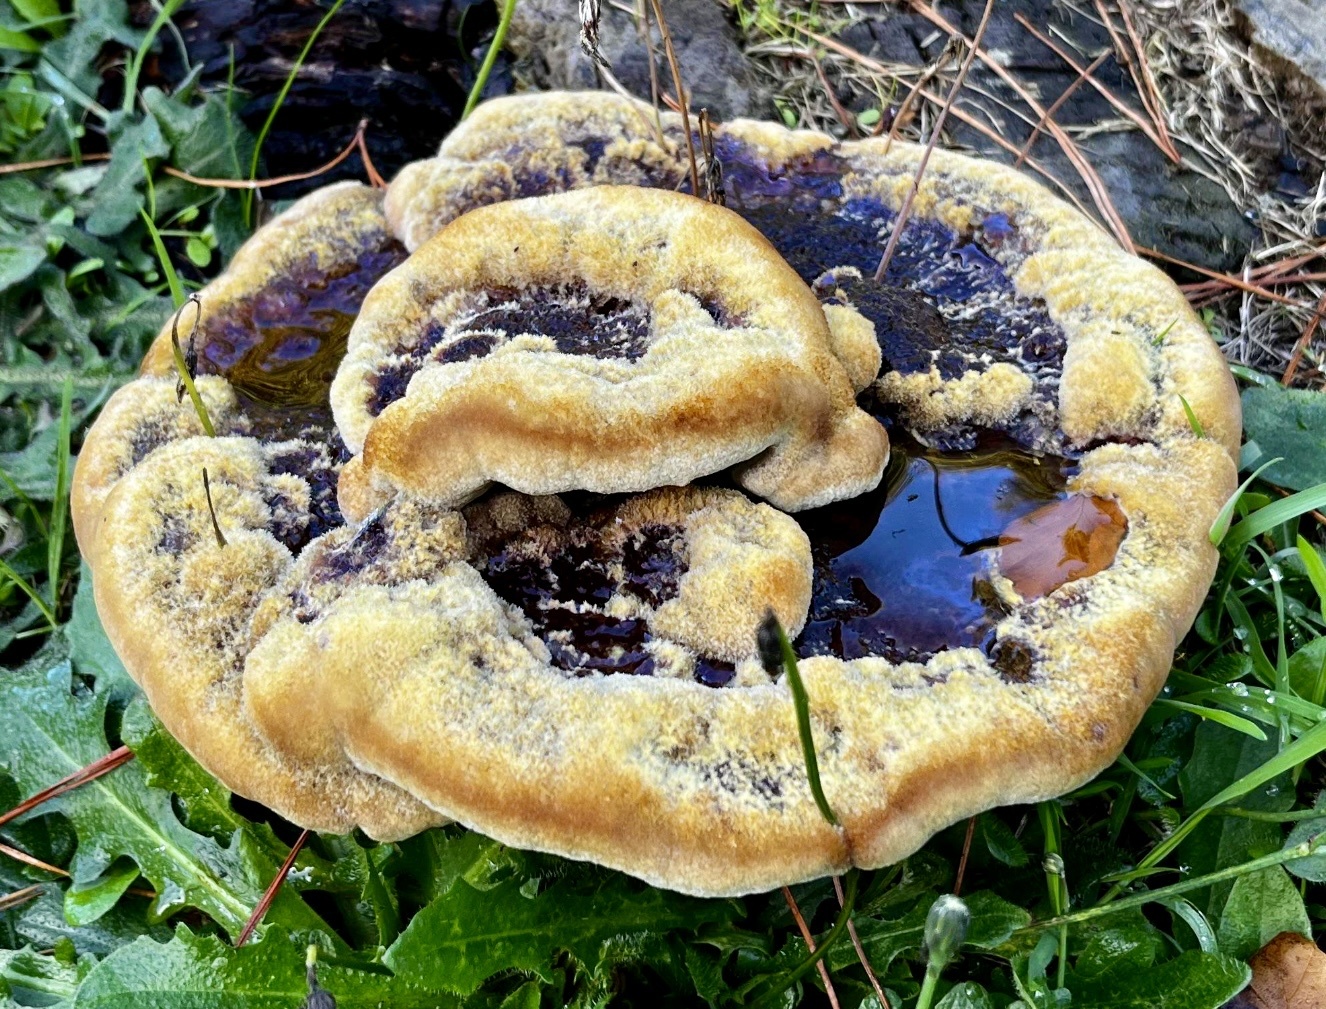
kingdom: Fungi
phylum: Basidiomycota
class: Agaricomycetes
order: Polyporales
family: Laetiporaceae
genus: Phaeolus
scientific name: Phaeolus schweinitzii
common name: Dyer's mazegill
